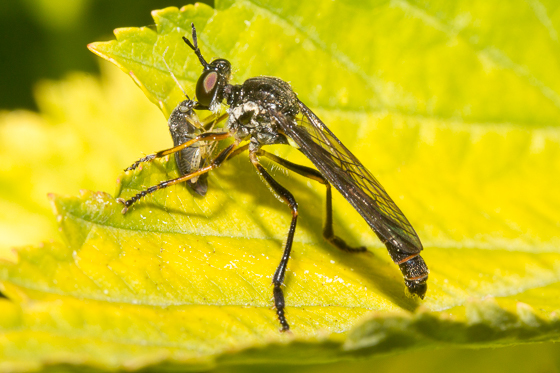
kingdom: Animalia
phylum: Arthropoda
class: Insecta
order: Diptera
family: Asilidae
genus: Dioctria
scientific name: Dioctria hyalipennis
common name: Stripe-legged robberfly
